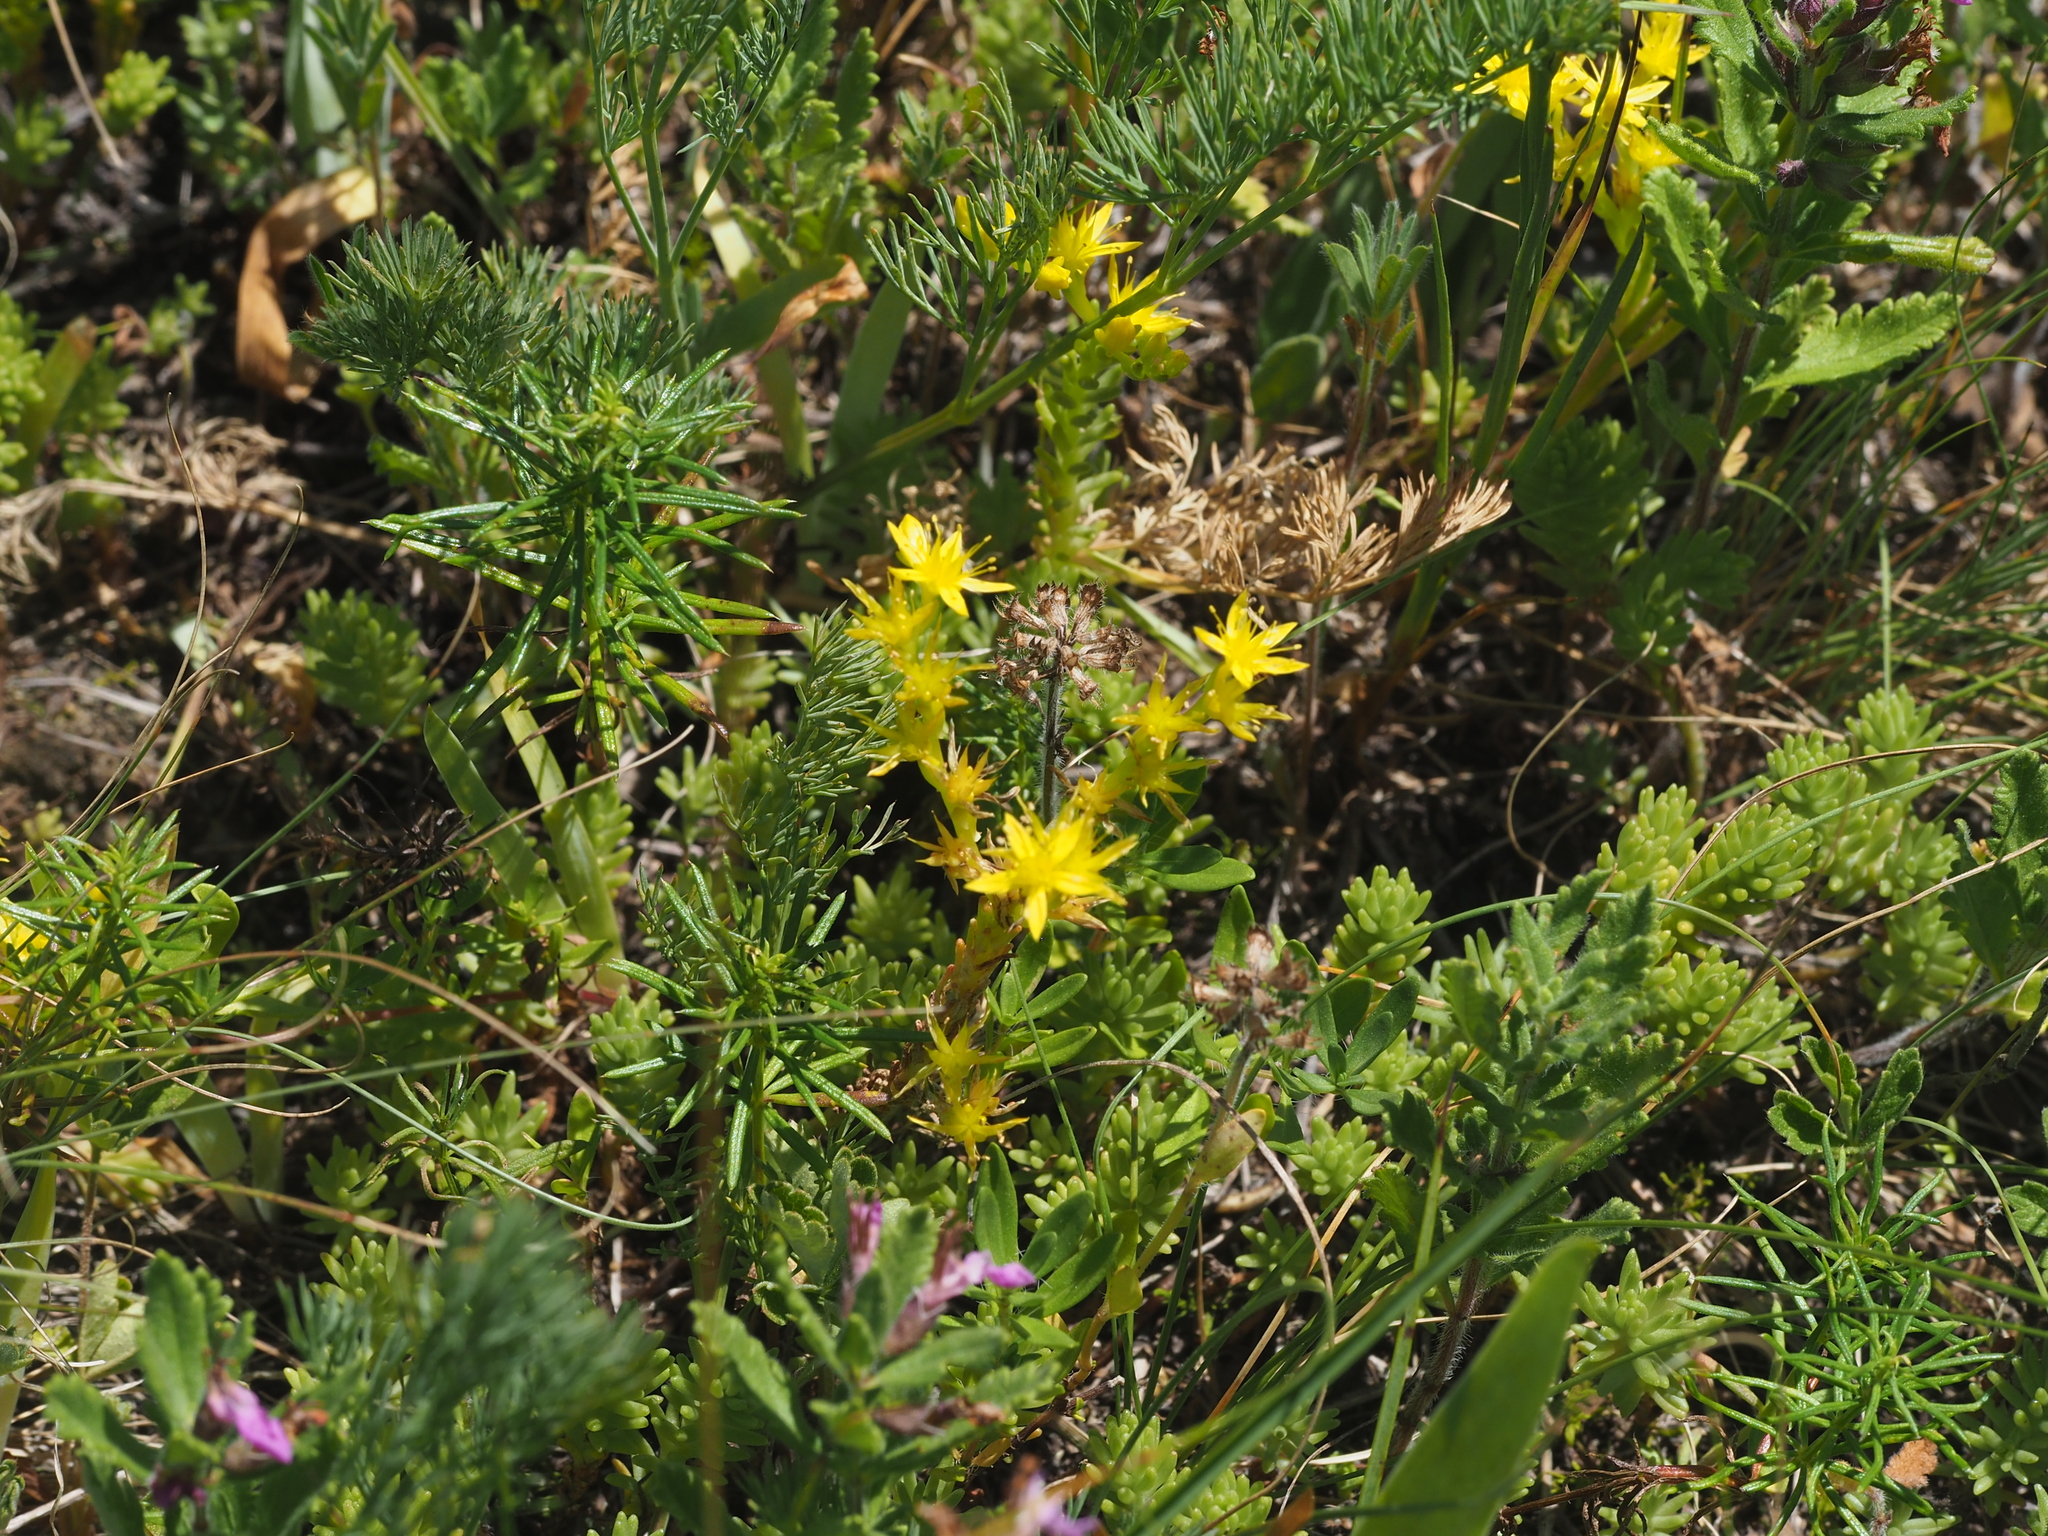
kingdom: Plantae
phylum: Tracheophyta
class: Magnoliopsida
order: Saxifragales
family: Crassulaceae
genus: Sedum
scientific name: Sedum sexangulare
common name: Tasteless stonecrop
